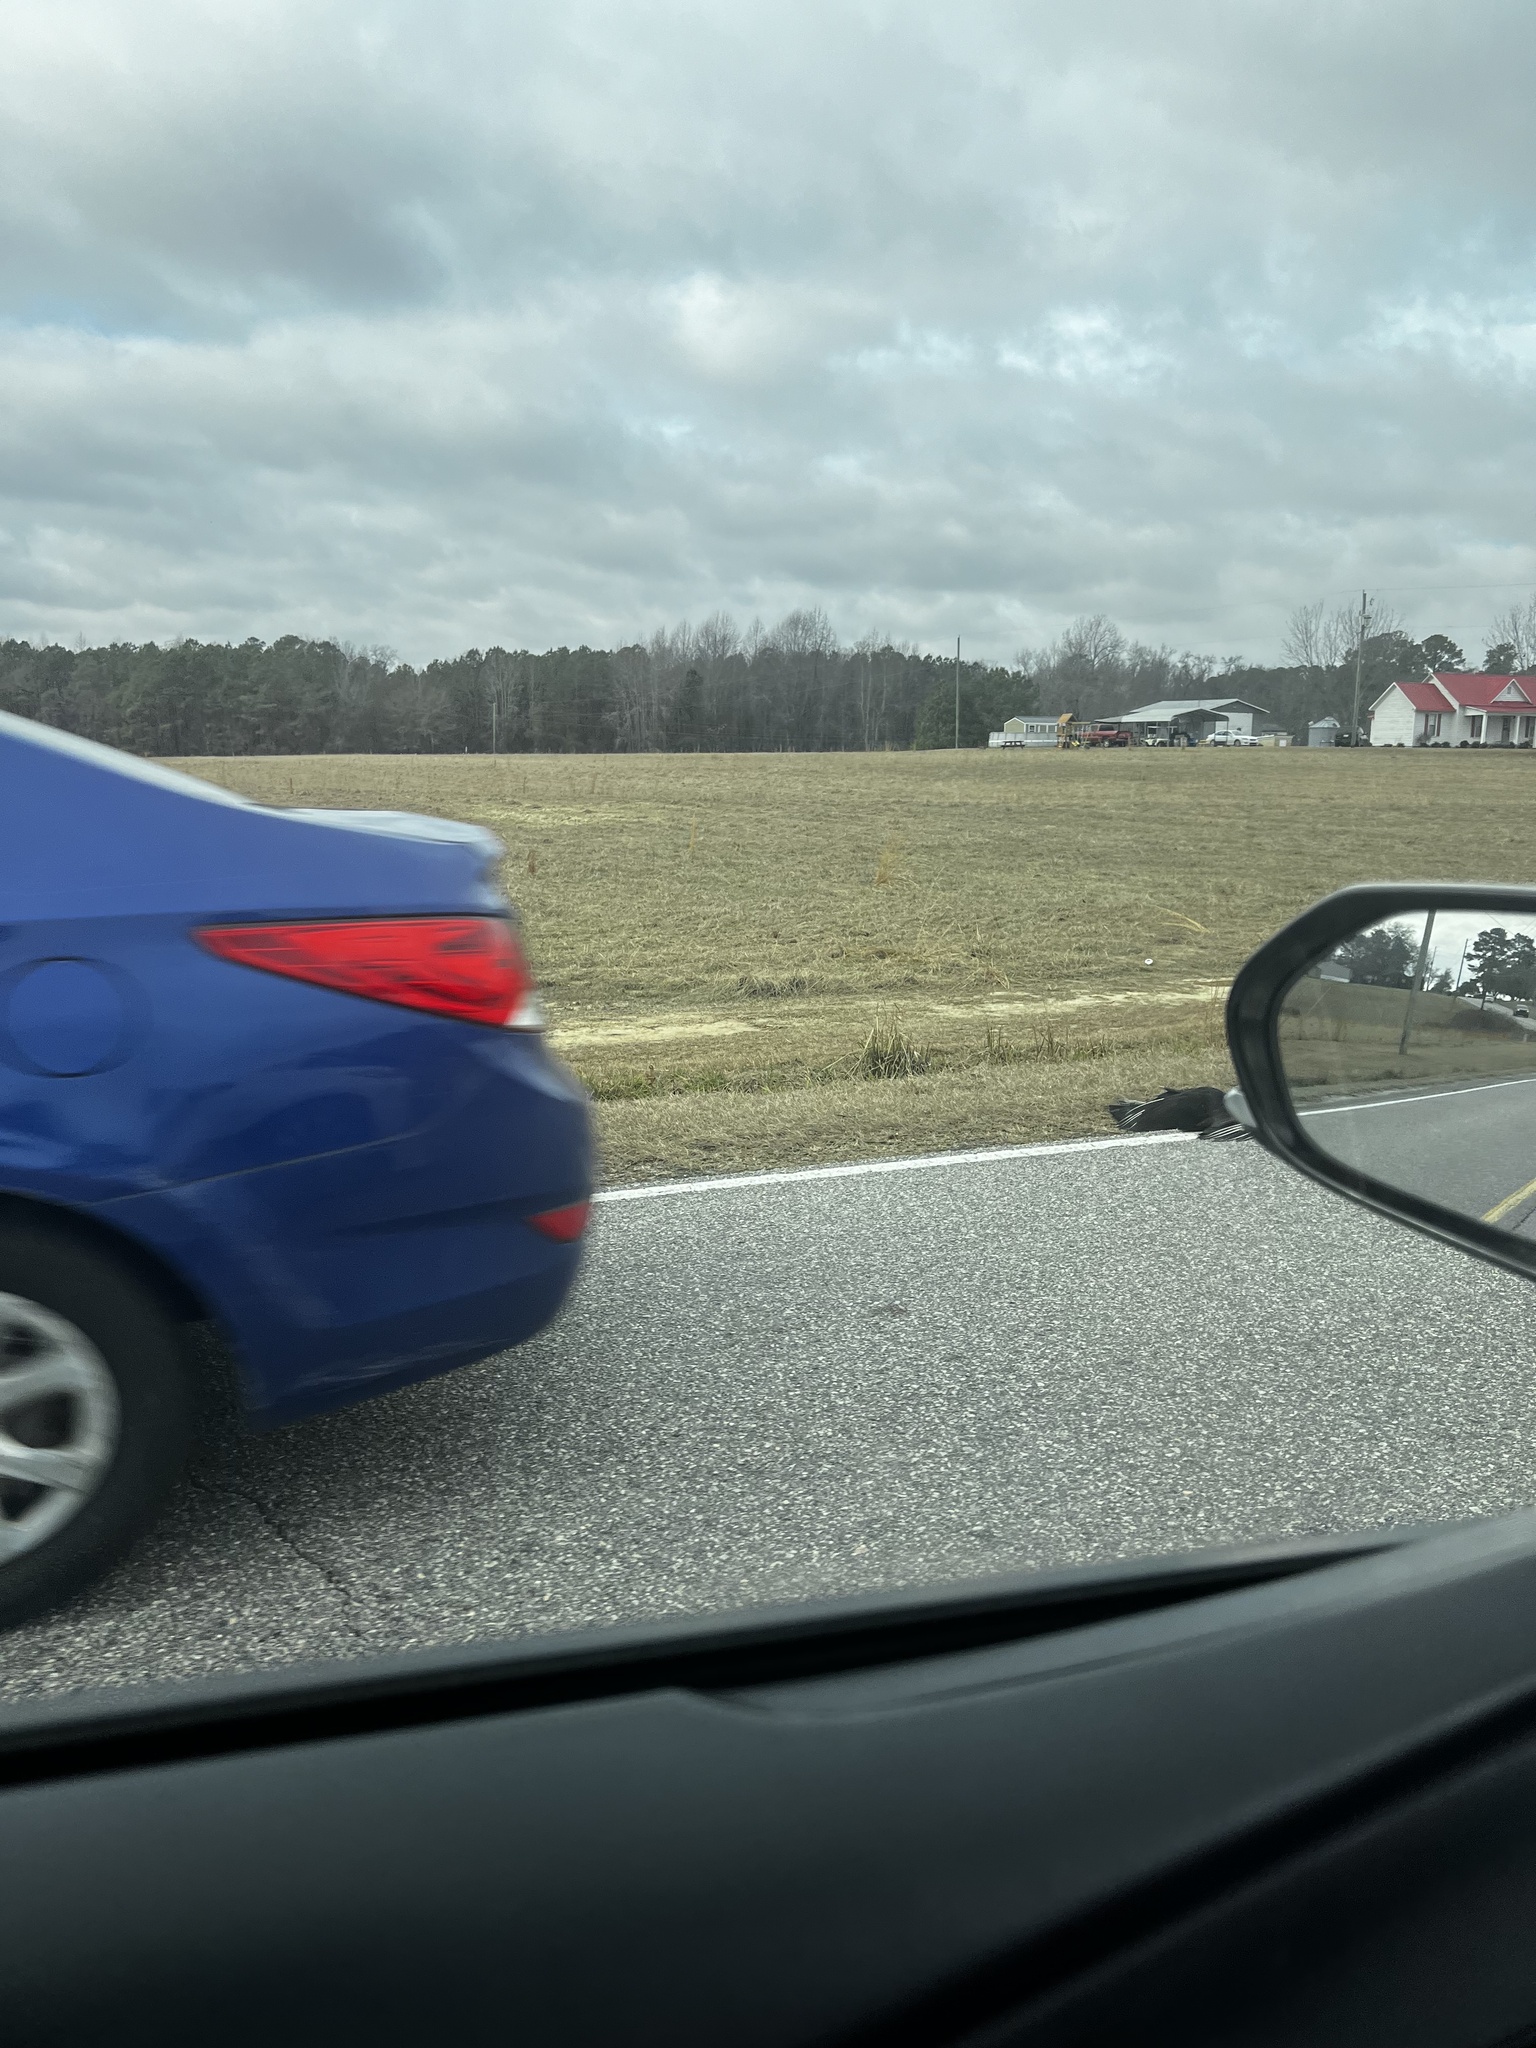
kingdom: Animalia
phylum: Chordata
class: Aves
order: Accipitriformes
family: Cathartidae
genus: Coragyps
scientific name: Coragyps atratus
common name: Black vulture
